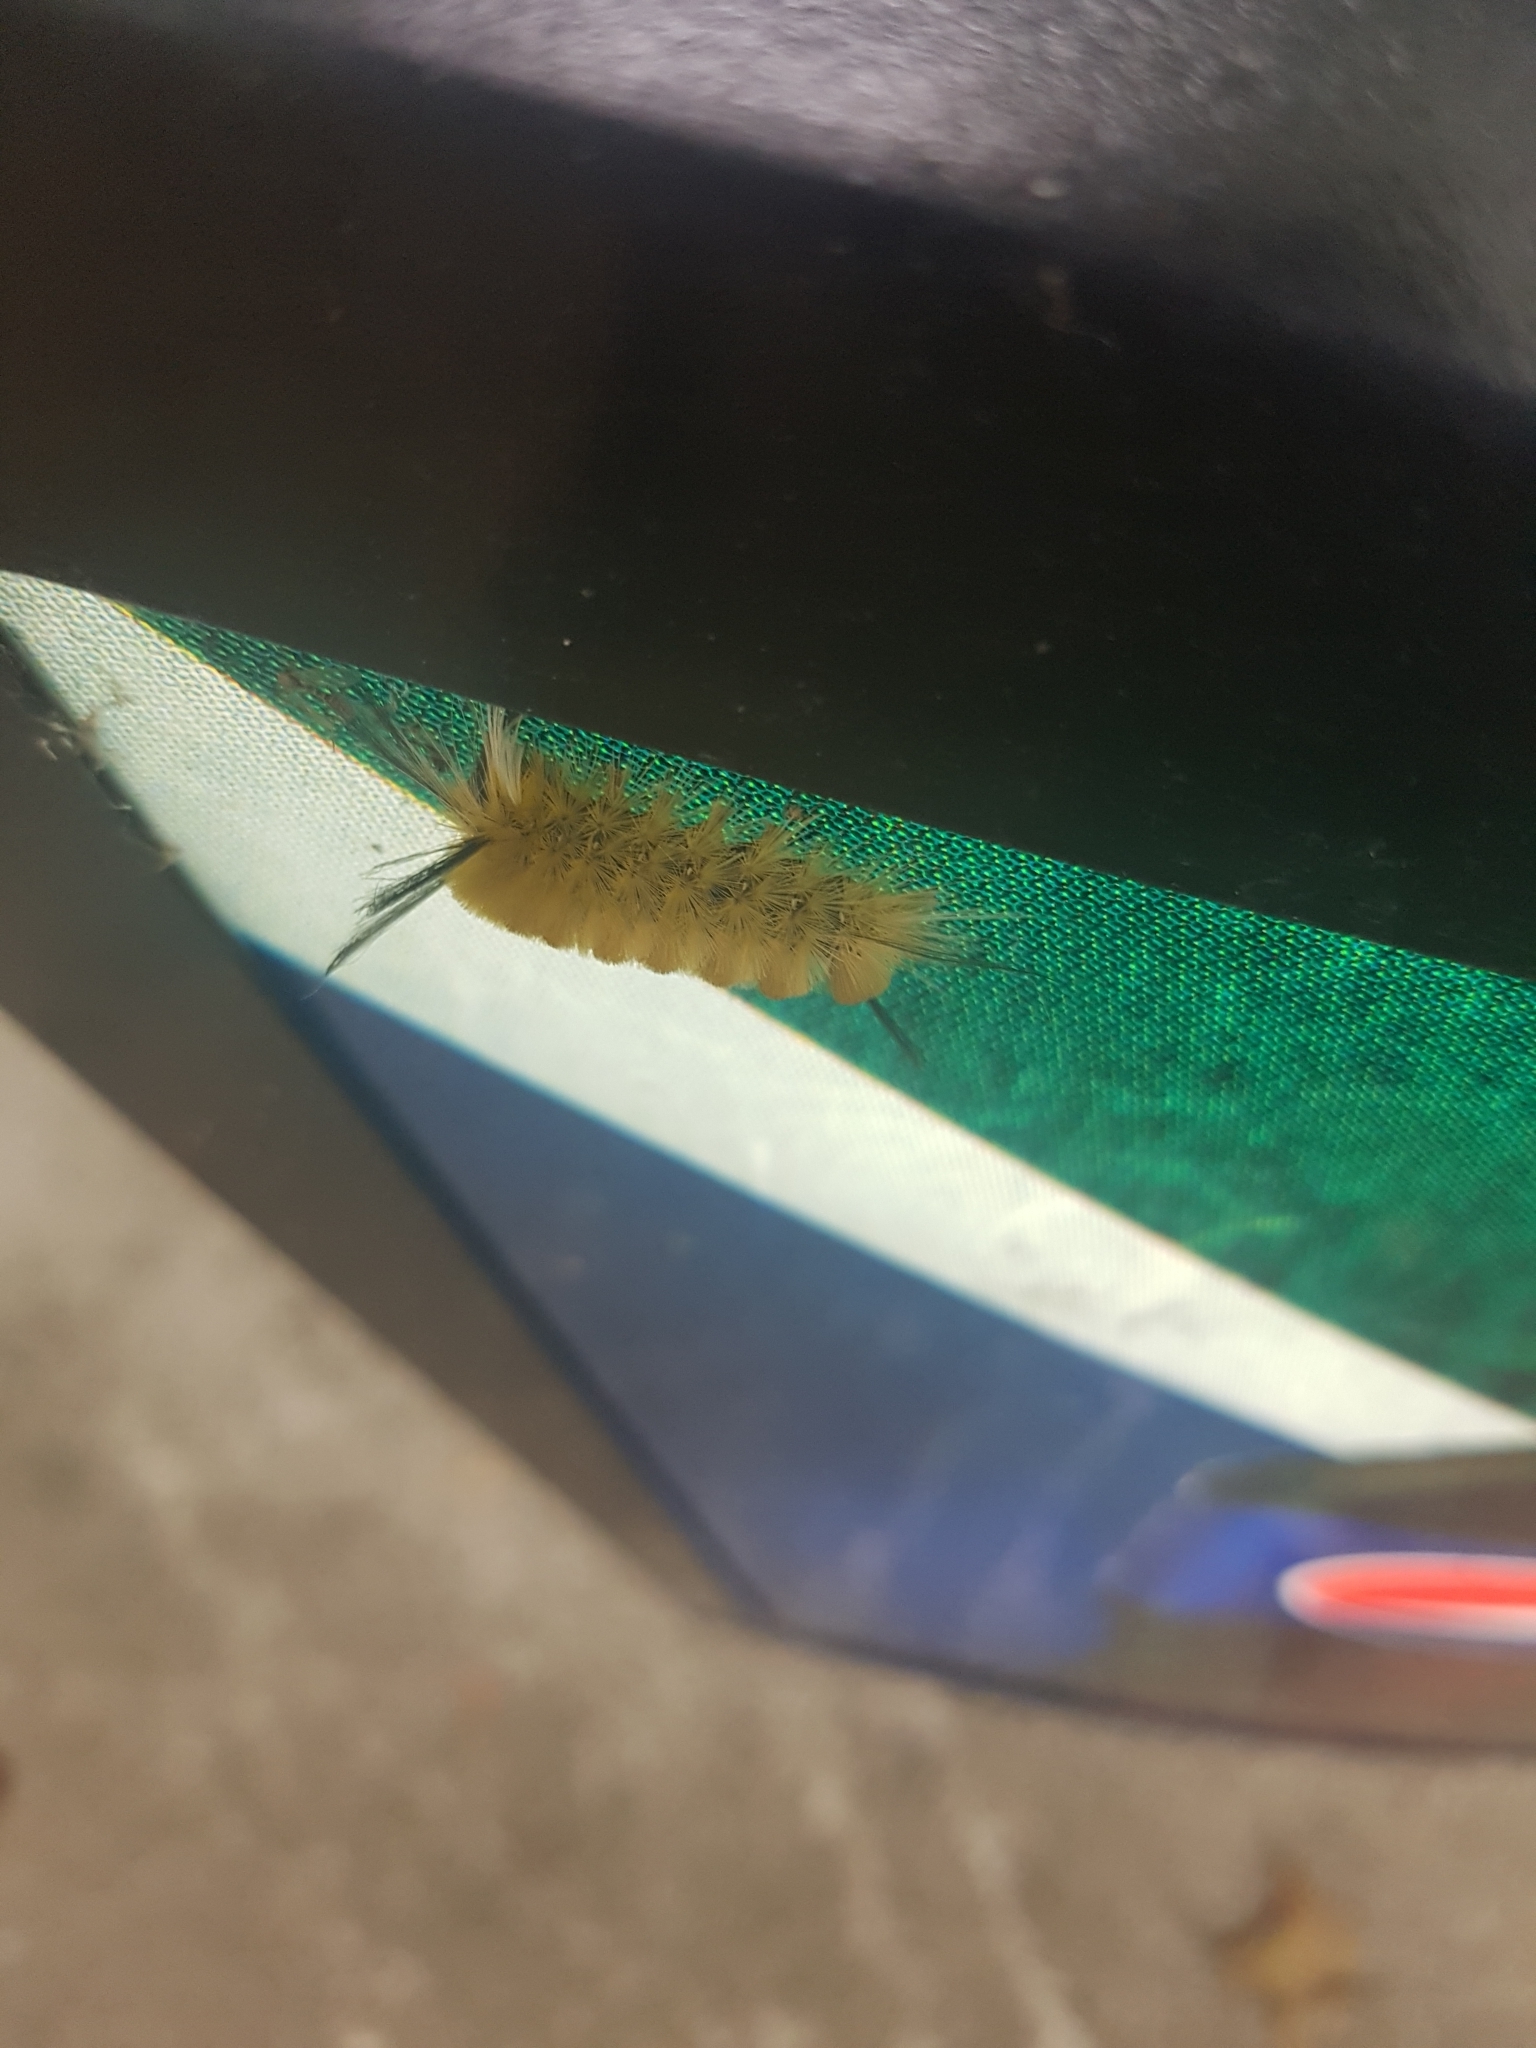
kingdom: Animalia
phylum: Arthropoda
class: Insecta
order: Lepidoptera
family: Erebidae
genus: Halysidota
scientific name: Halysidota tessellaris
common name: Banded tussock moth
